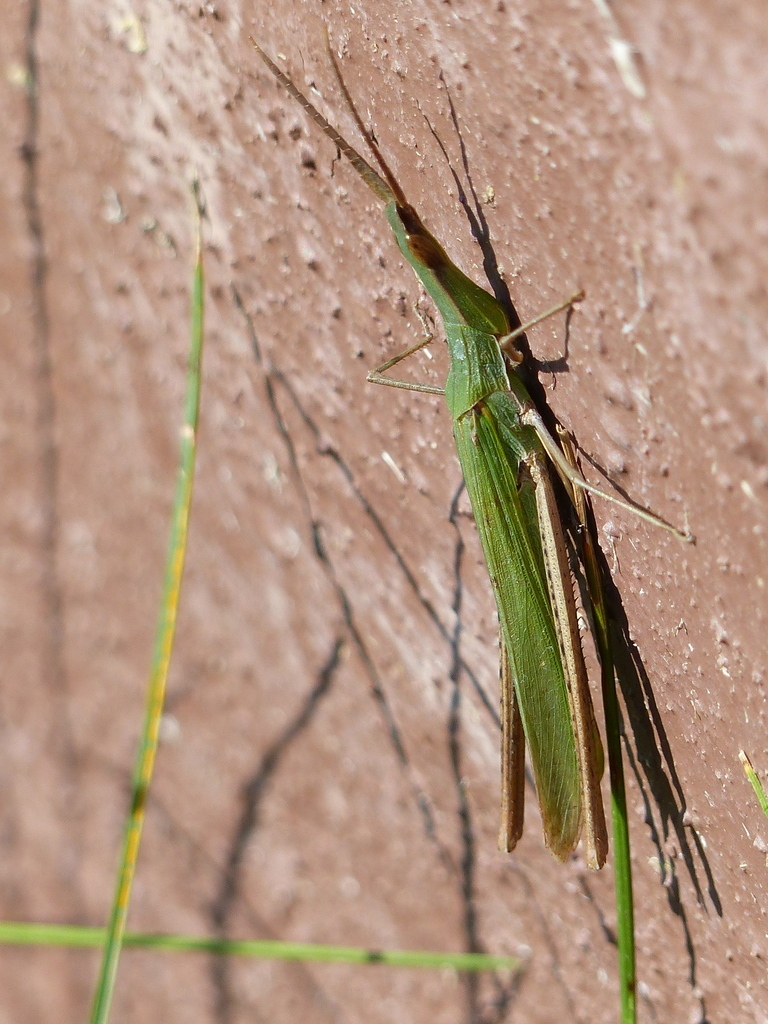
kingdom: Animalia
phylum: Arthropoda
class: Insecta
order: Orthoptera
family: Acrididae
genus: Acrida
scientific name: Acrida ungarica
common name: Common cone-headed grasshopper
